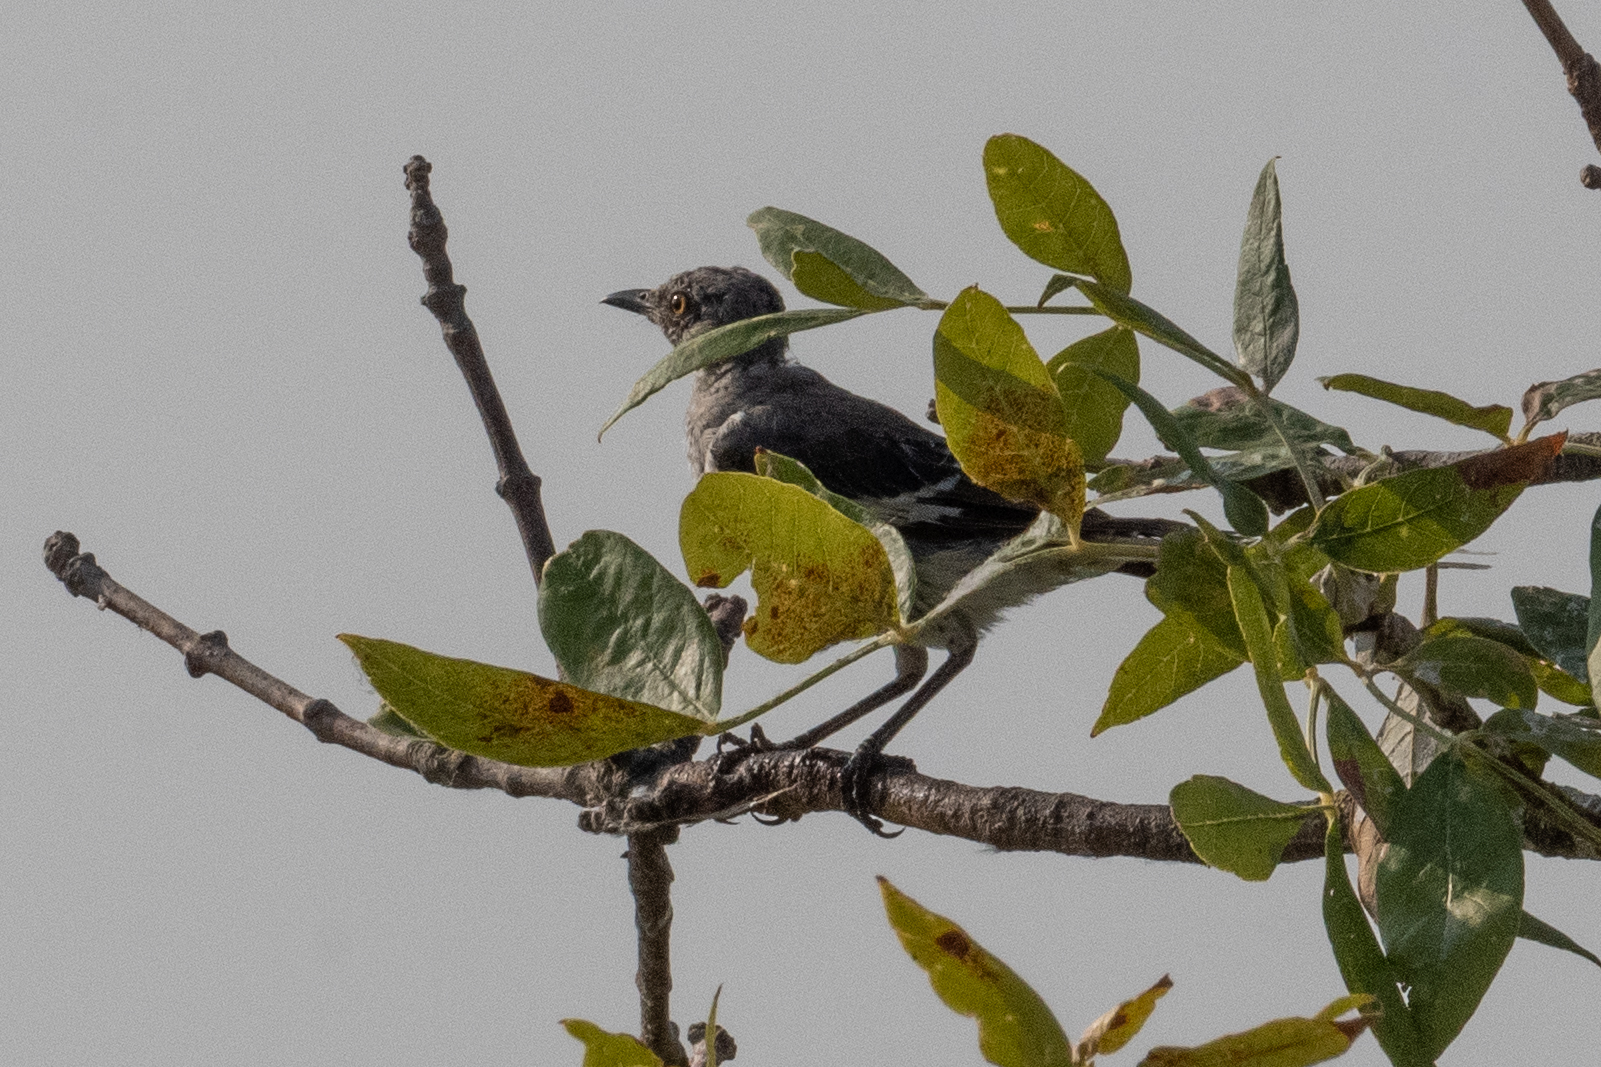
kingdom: Animalia
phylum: Chordata
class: Aves
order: Passeriformes
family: Mimidae
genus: Mimus
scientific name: Mimus polyglottos
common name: Northern mockingbird
